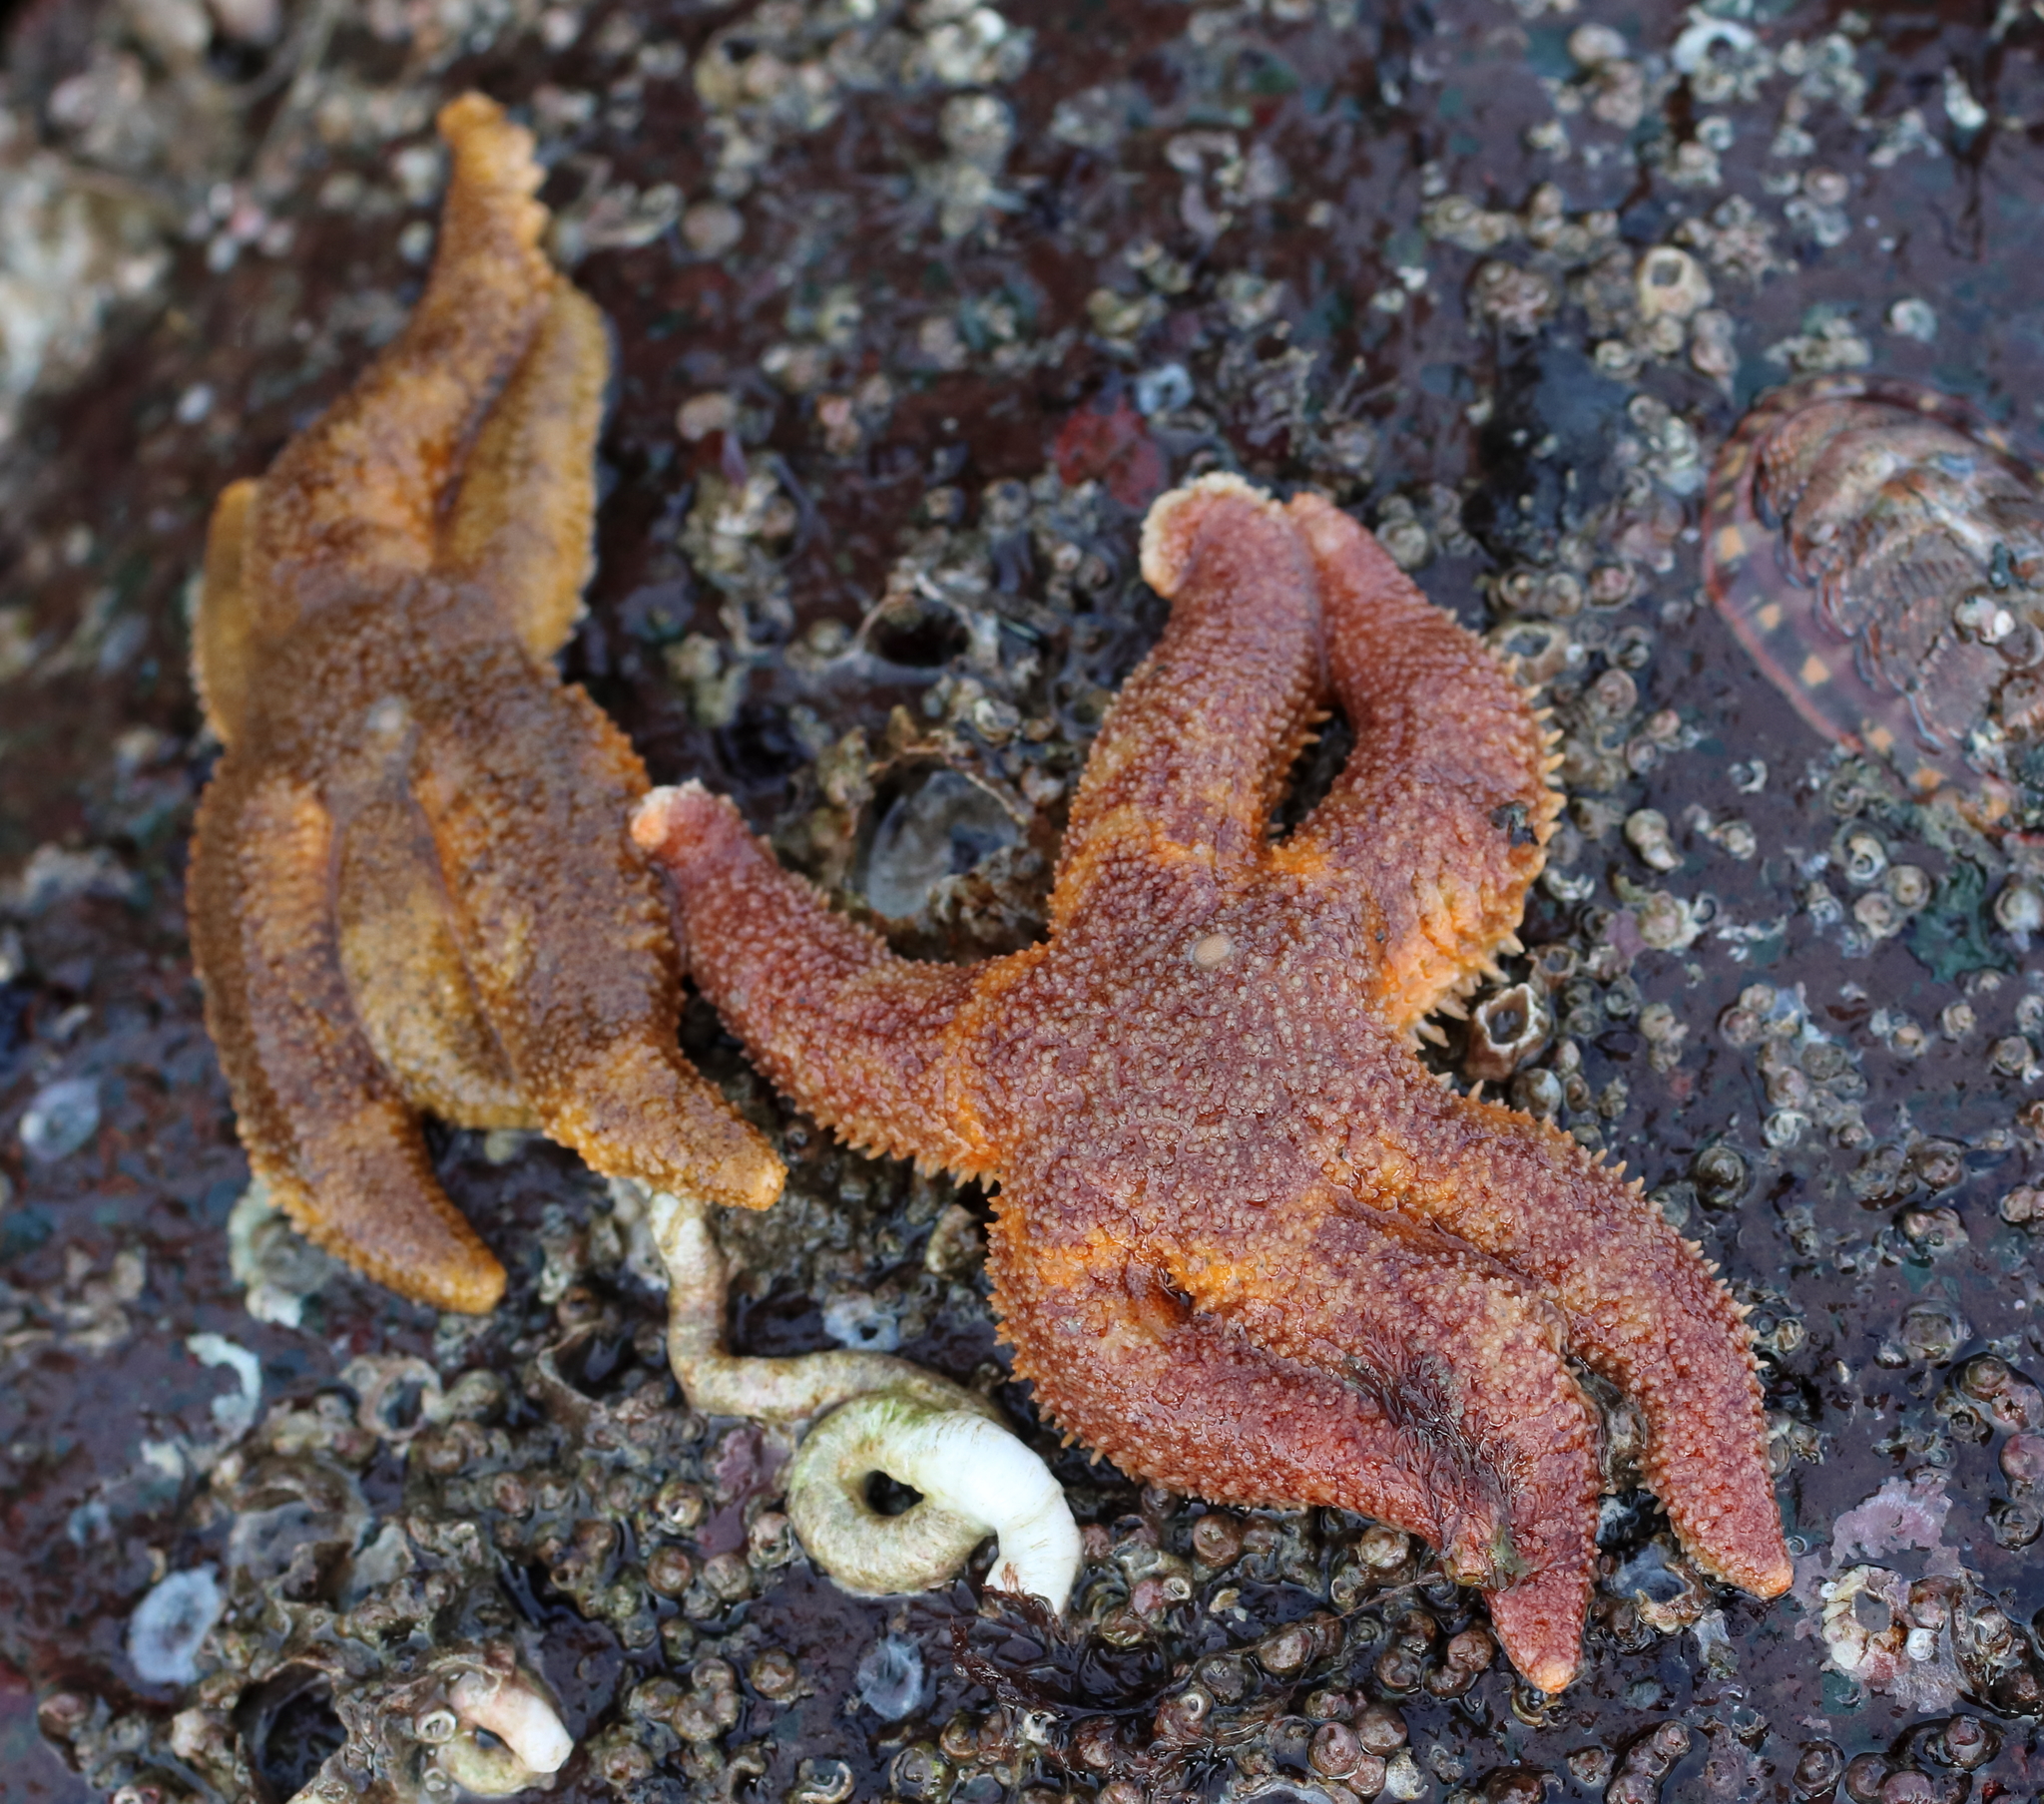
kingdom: Animalia
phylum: Echinodermata
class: Asteroidea
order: Forcipulatida
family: Asteriidae
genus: Leptasterias
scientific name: Leptasterias hexactis
